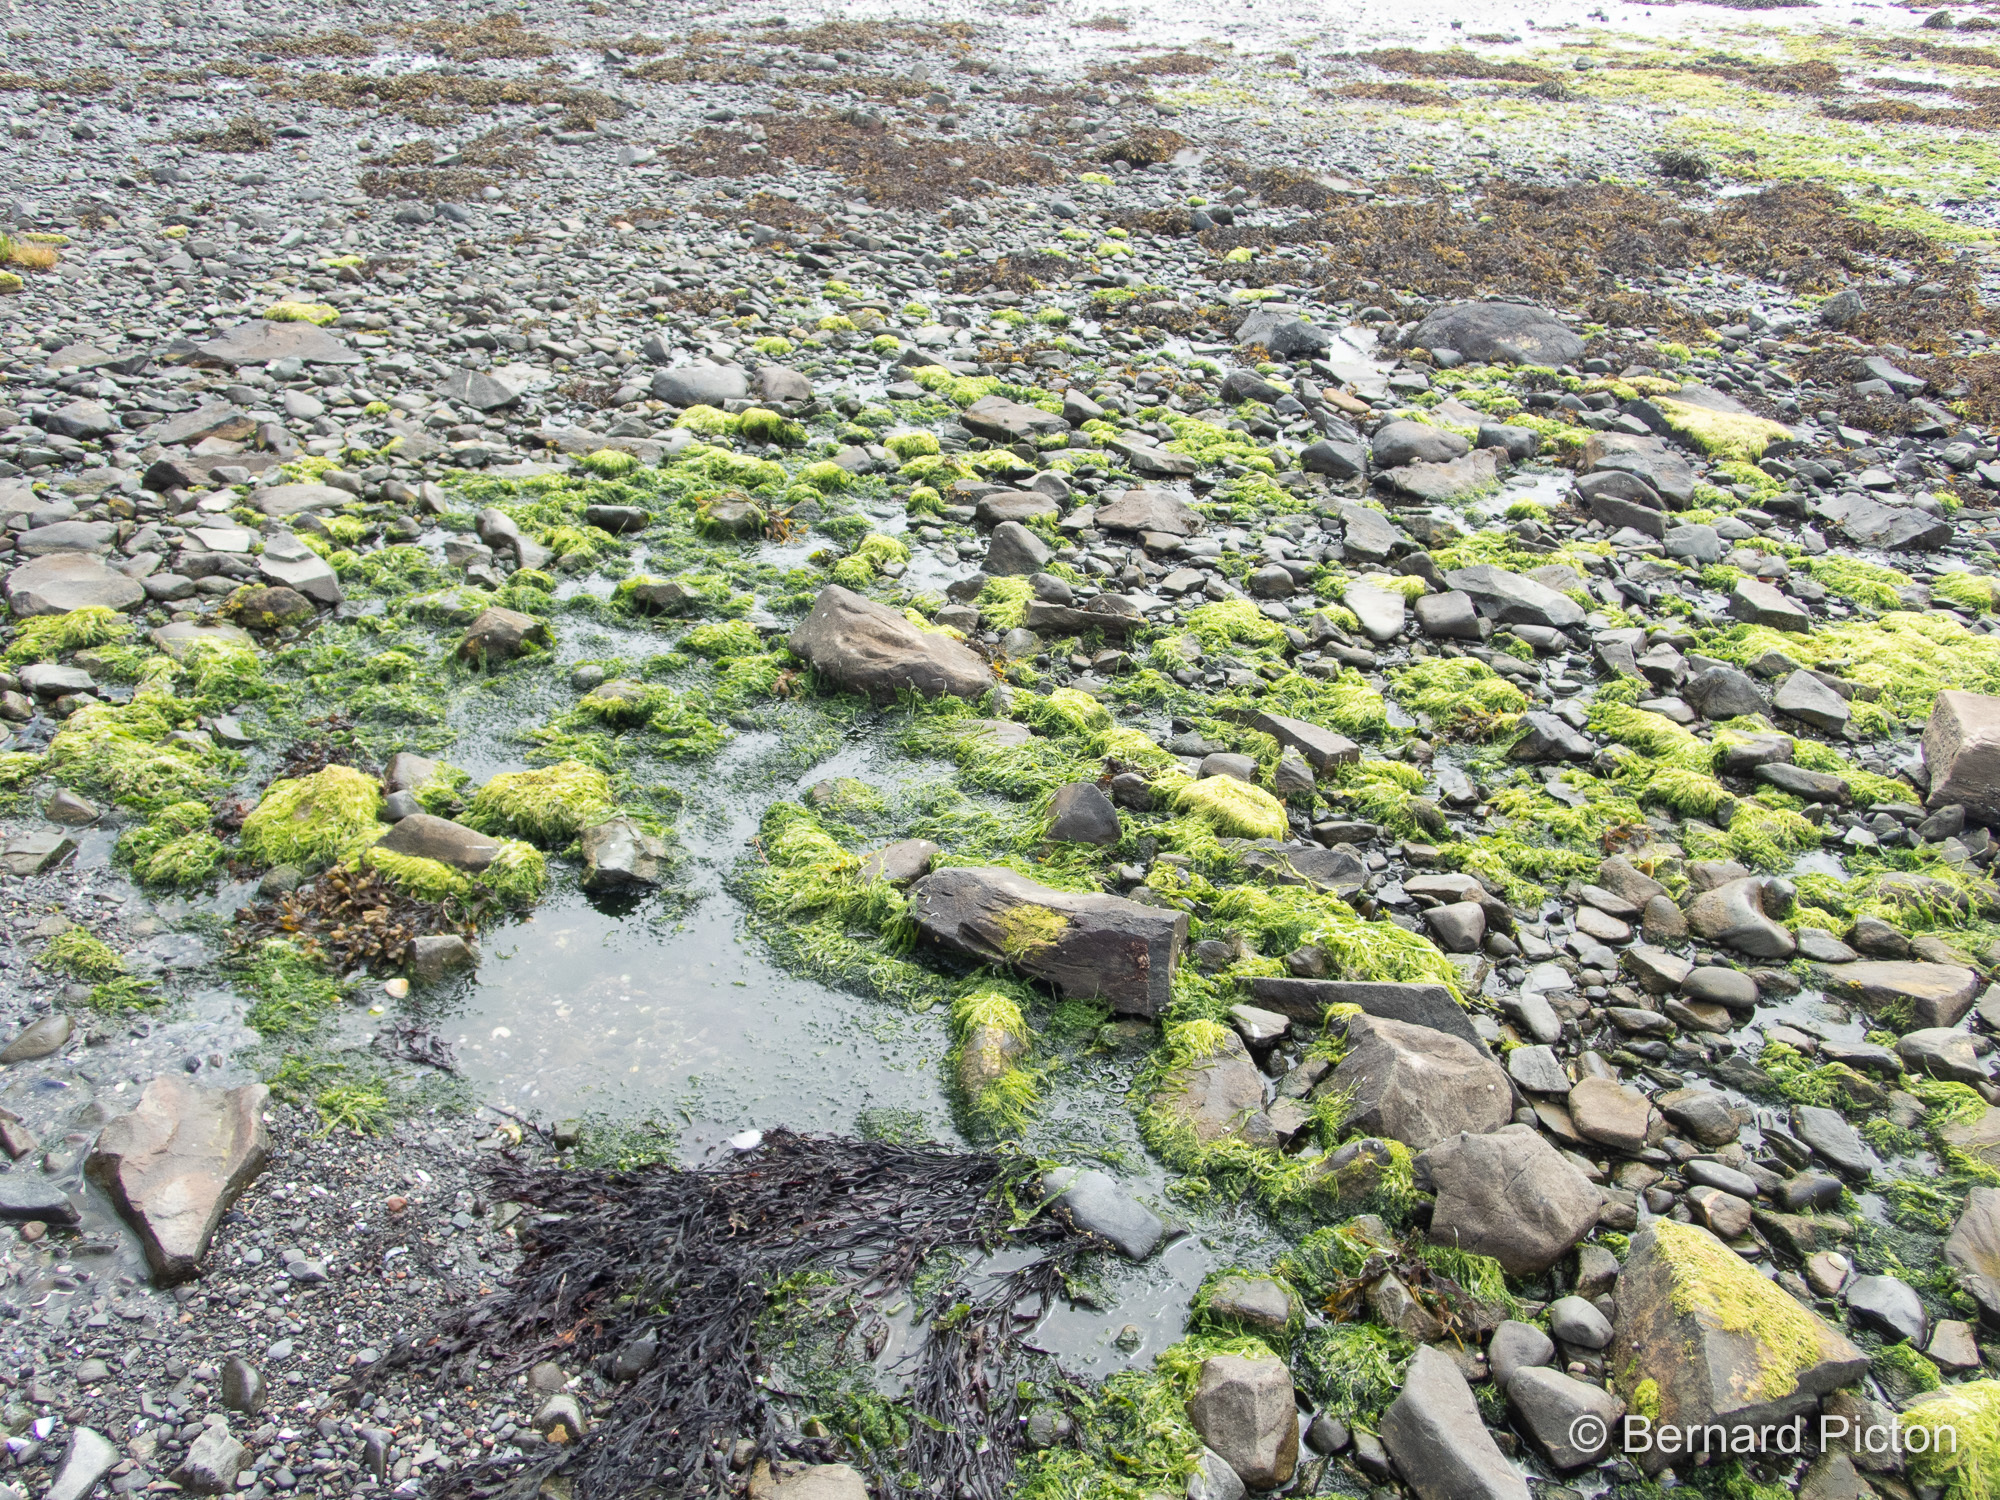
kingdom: Plantae
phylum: Chlorophyta
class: Ulvophyceae
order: Ulvales
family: Ulvaceae
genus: Ulva
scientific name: Ulva intestinalis
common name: Gut weed
